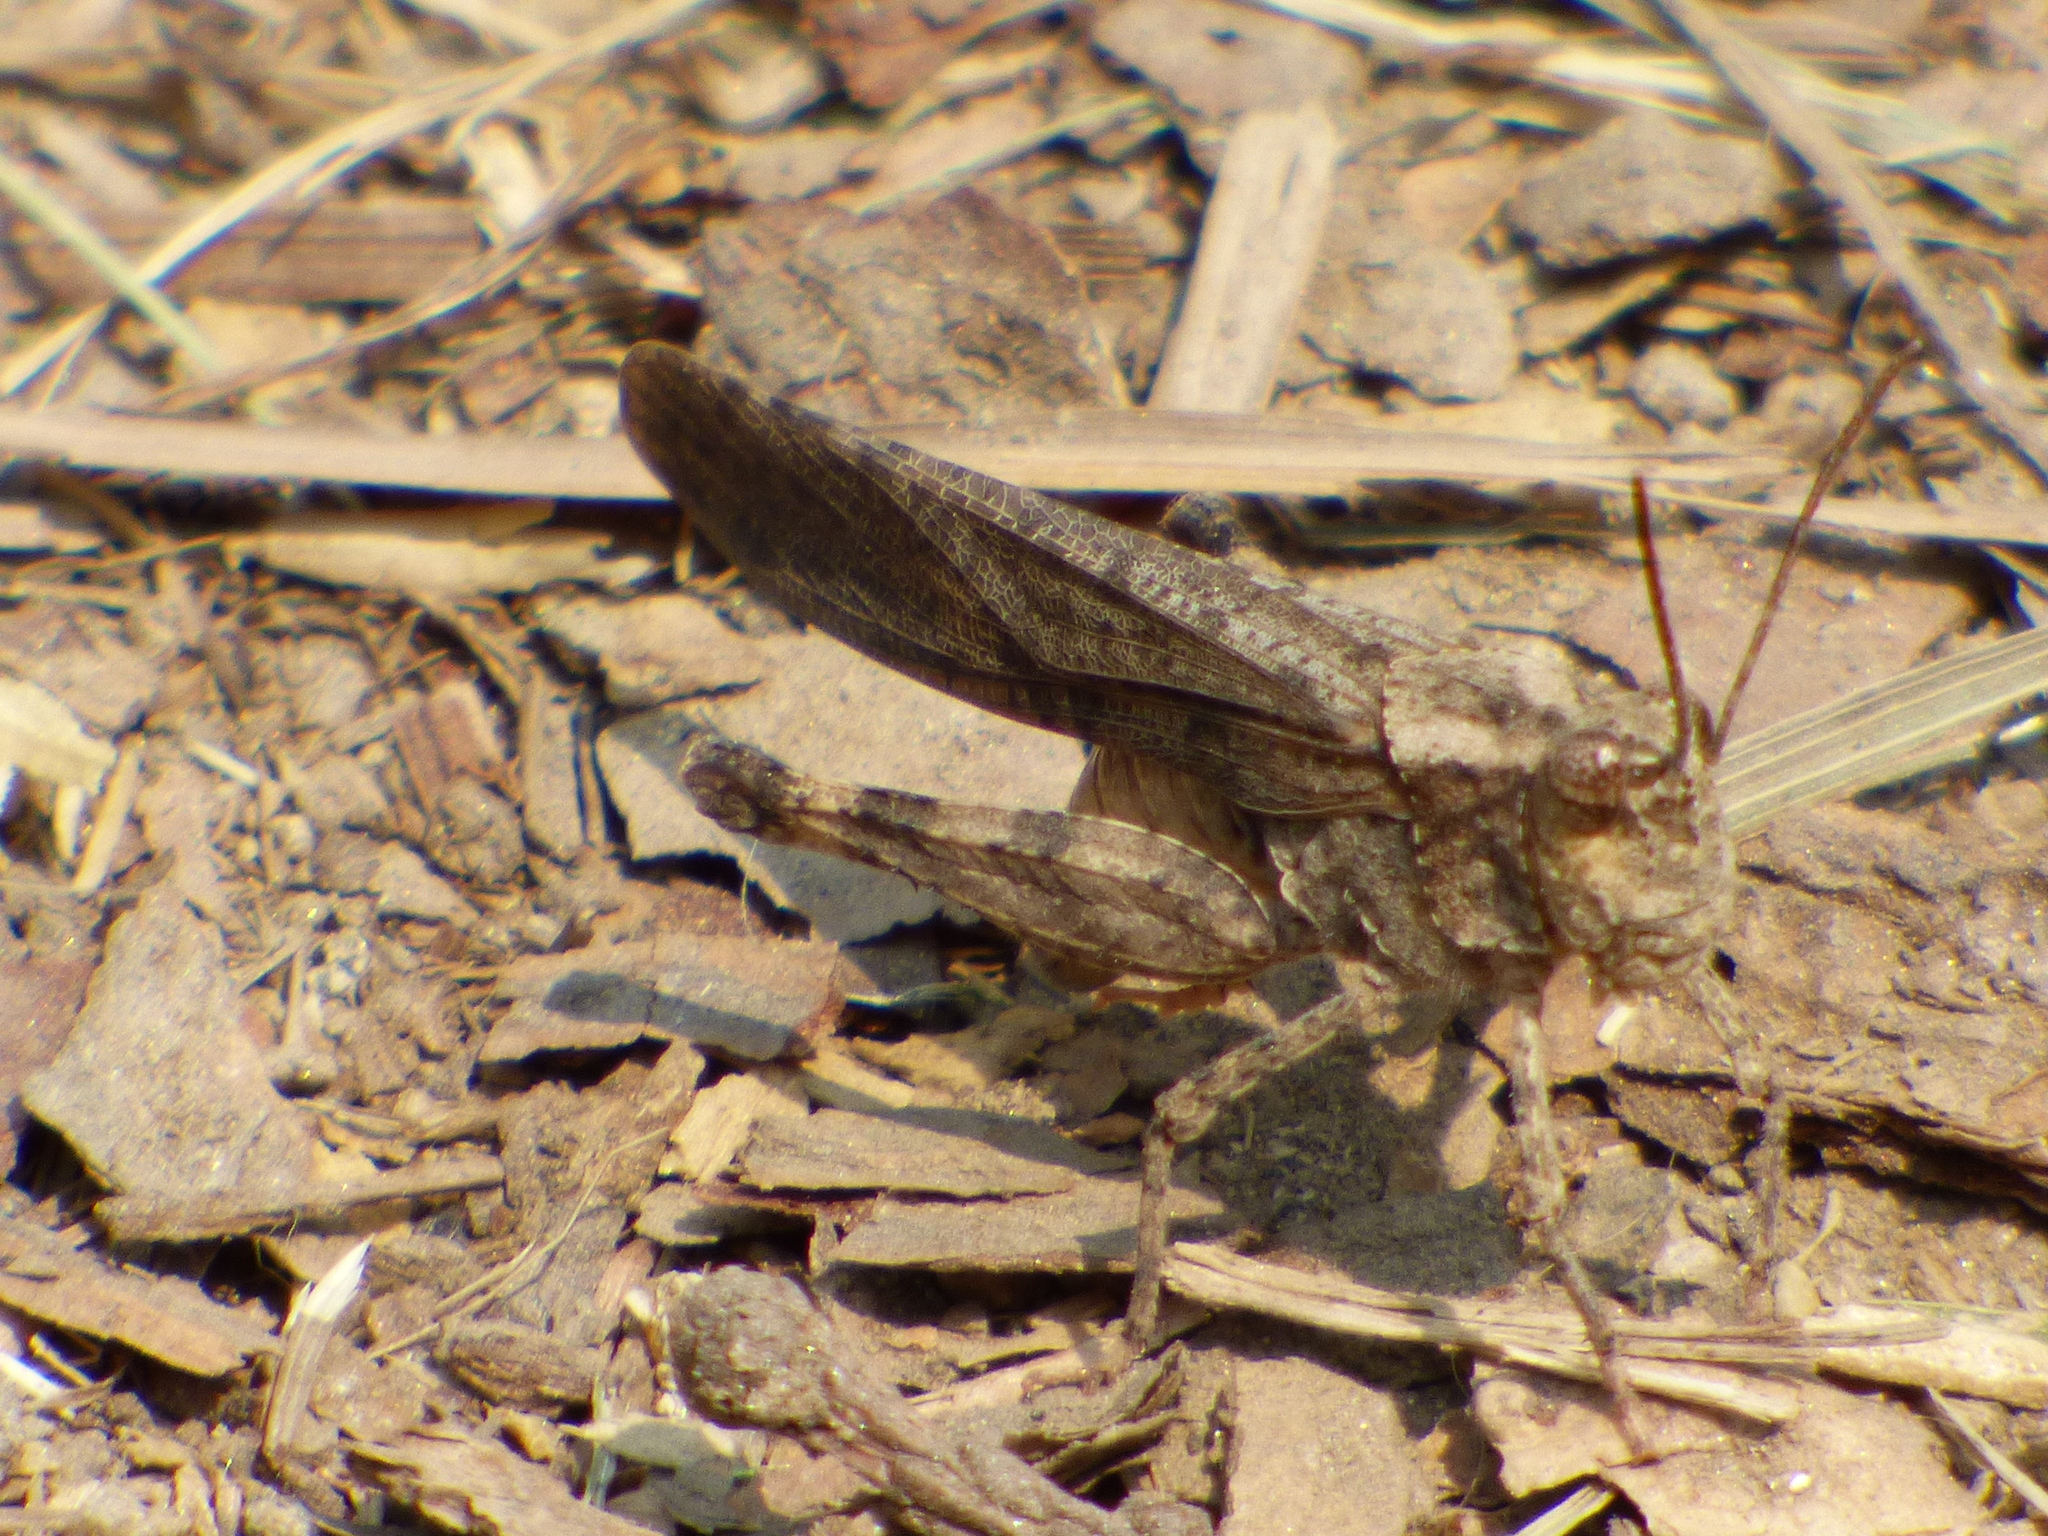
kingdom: Animalia
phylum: Arthropoda
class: Insecta
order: Orthoptera
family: Acrididae
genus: Trimerotropis
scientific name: Trimerotropis verruculata
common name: Crackling forest grasshopper
